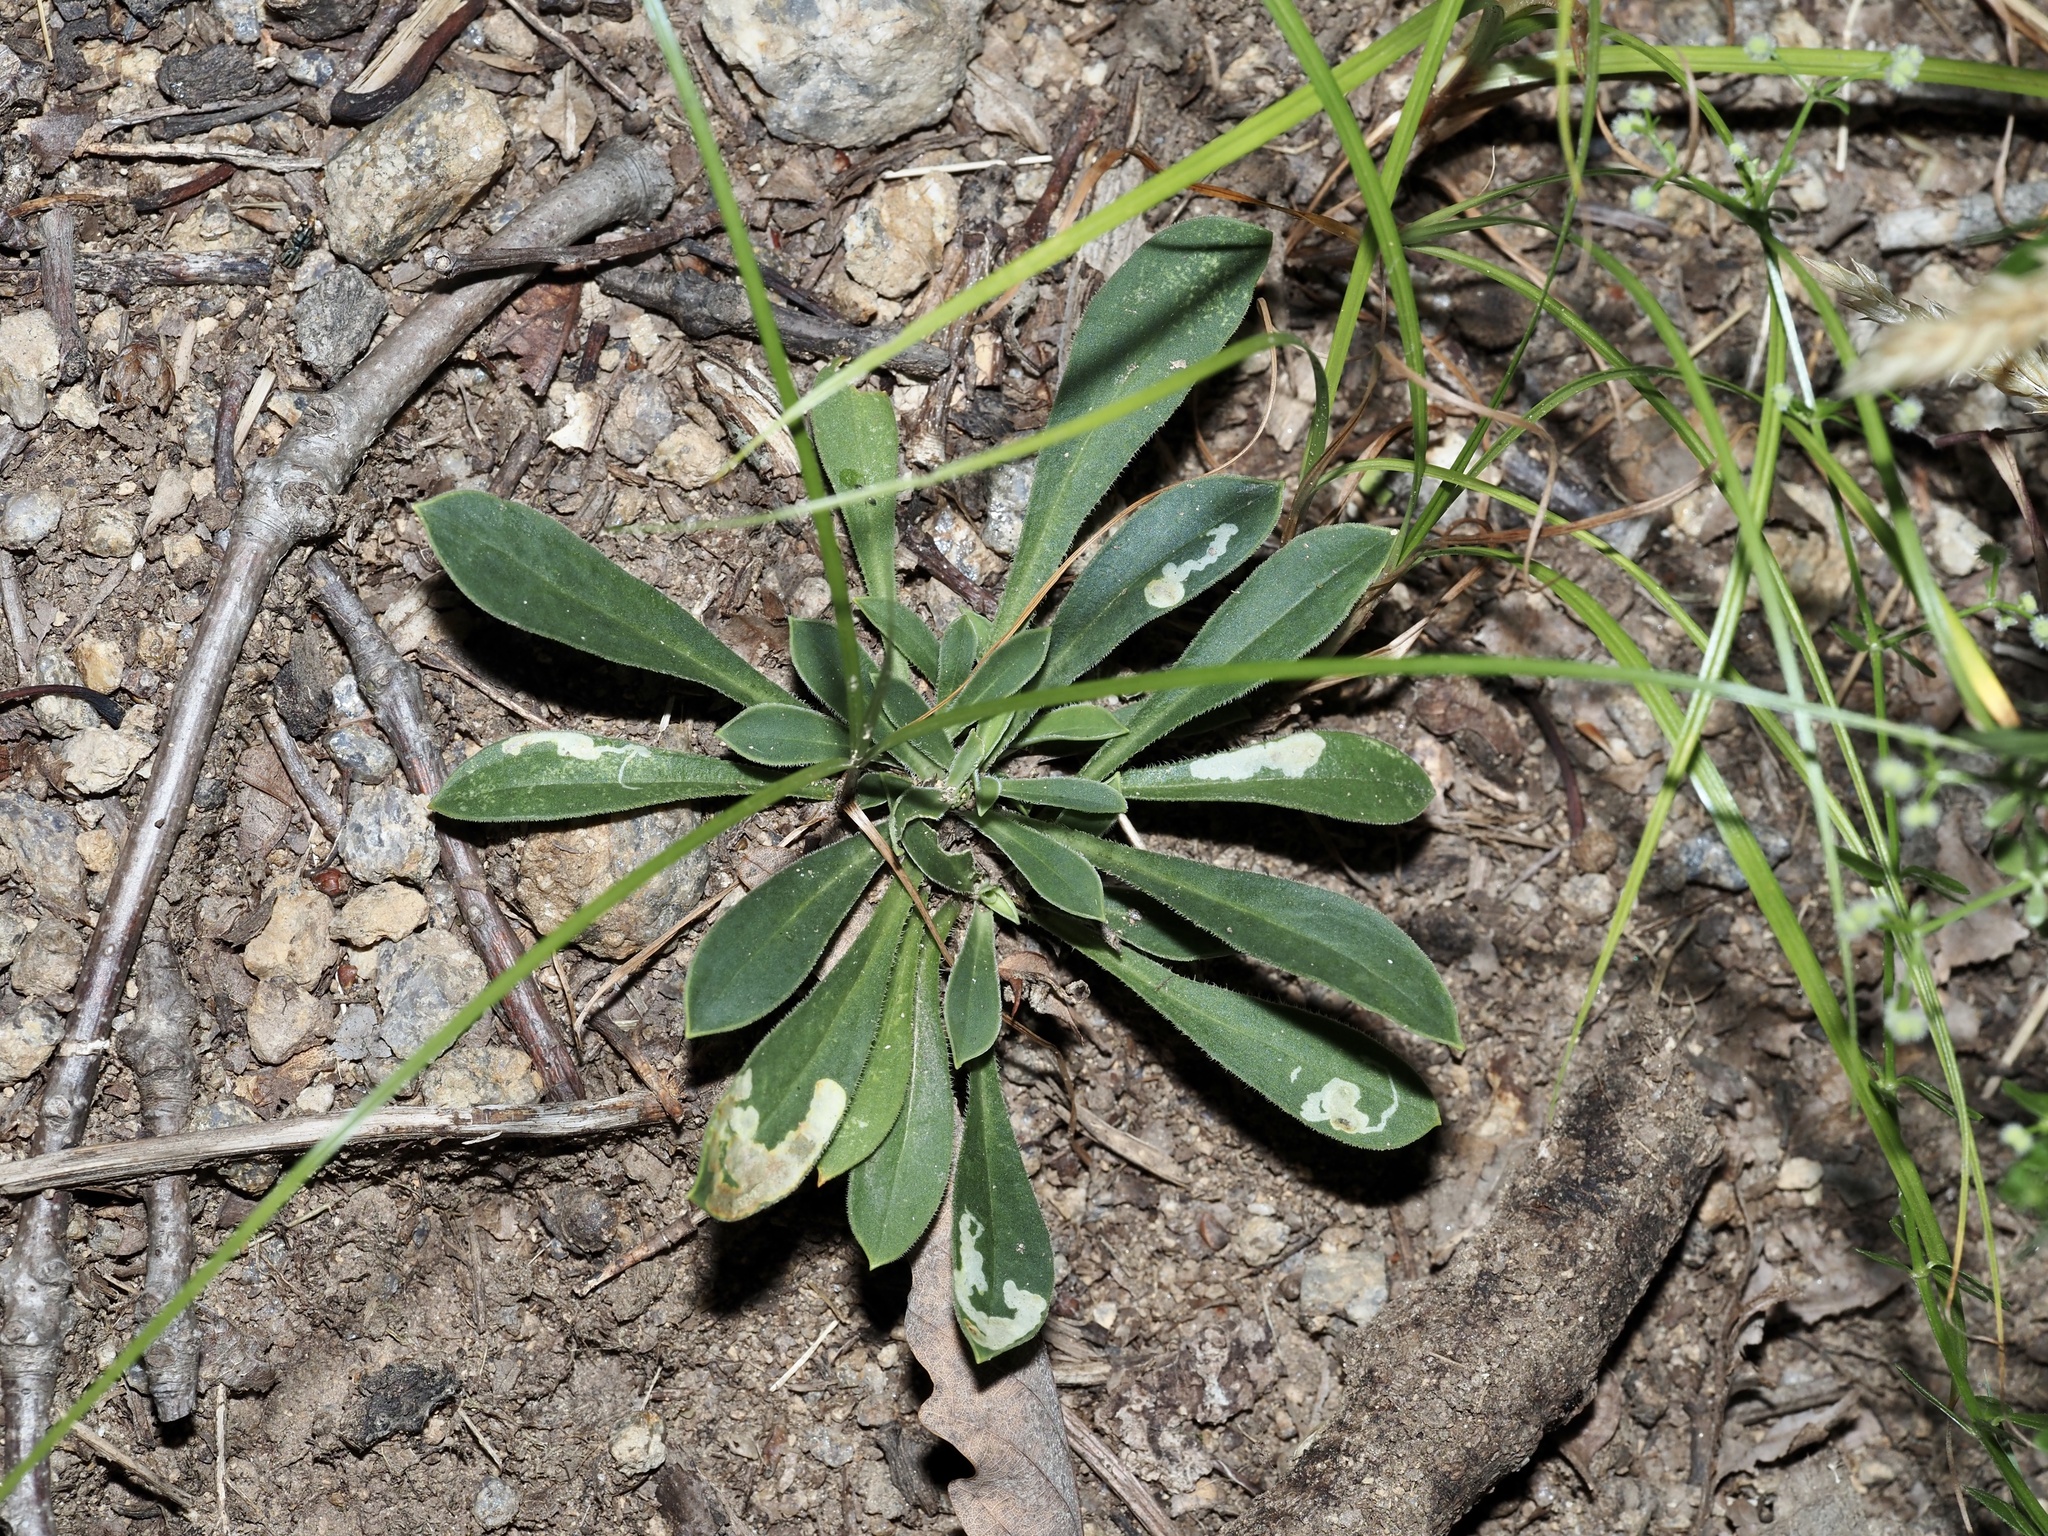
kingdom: Animalia
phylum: Arthropoda
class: Insecta
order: Diptera
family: Agromyzidae
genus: Amauromyza
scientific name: Amauromyza flavifrons
